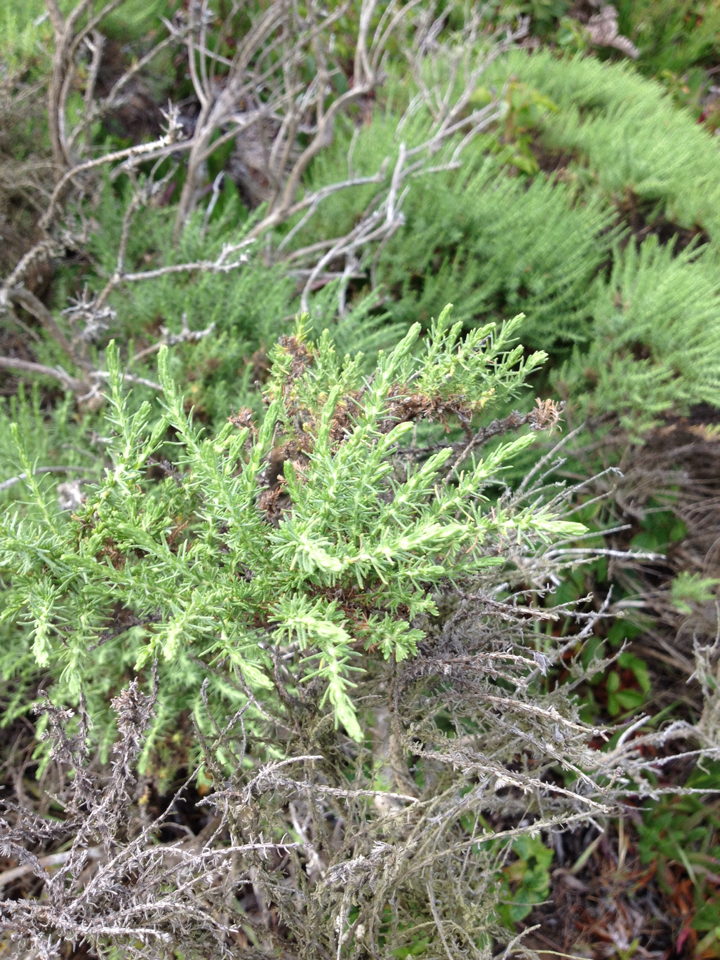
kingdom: Plantae
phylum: Tracheophyta
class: Magnoliopsida
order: Asterales
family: Asteraceae
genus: Ericameria
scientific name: Ericameria ericoides
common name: California goldenbush
